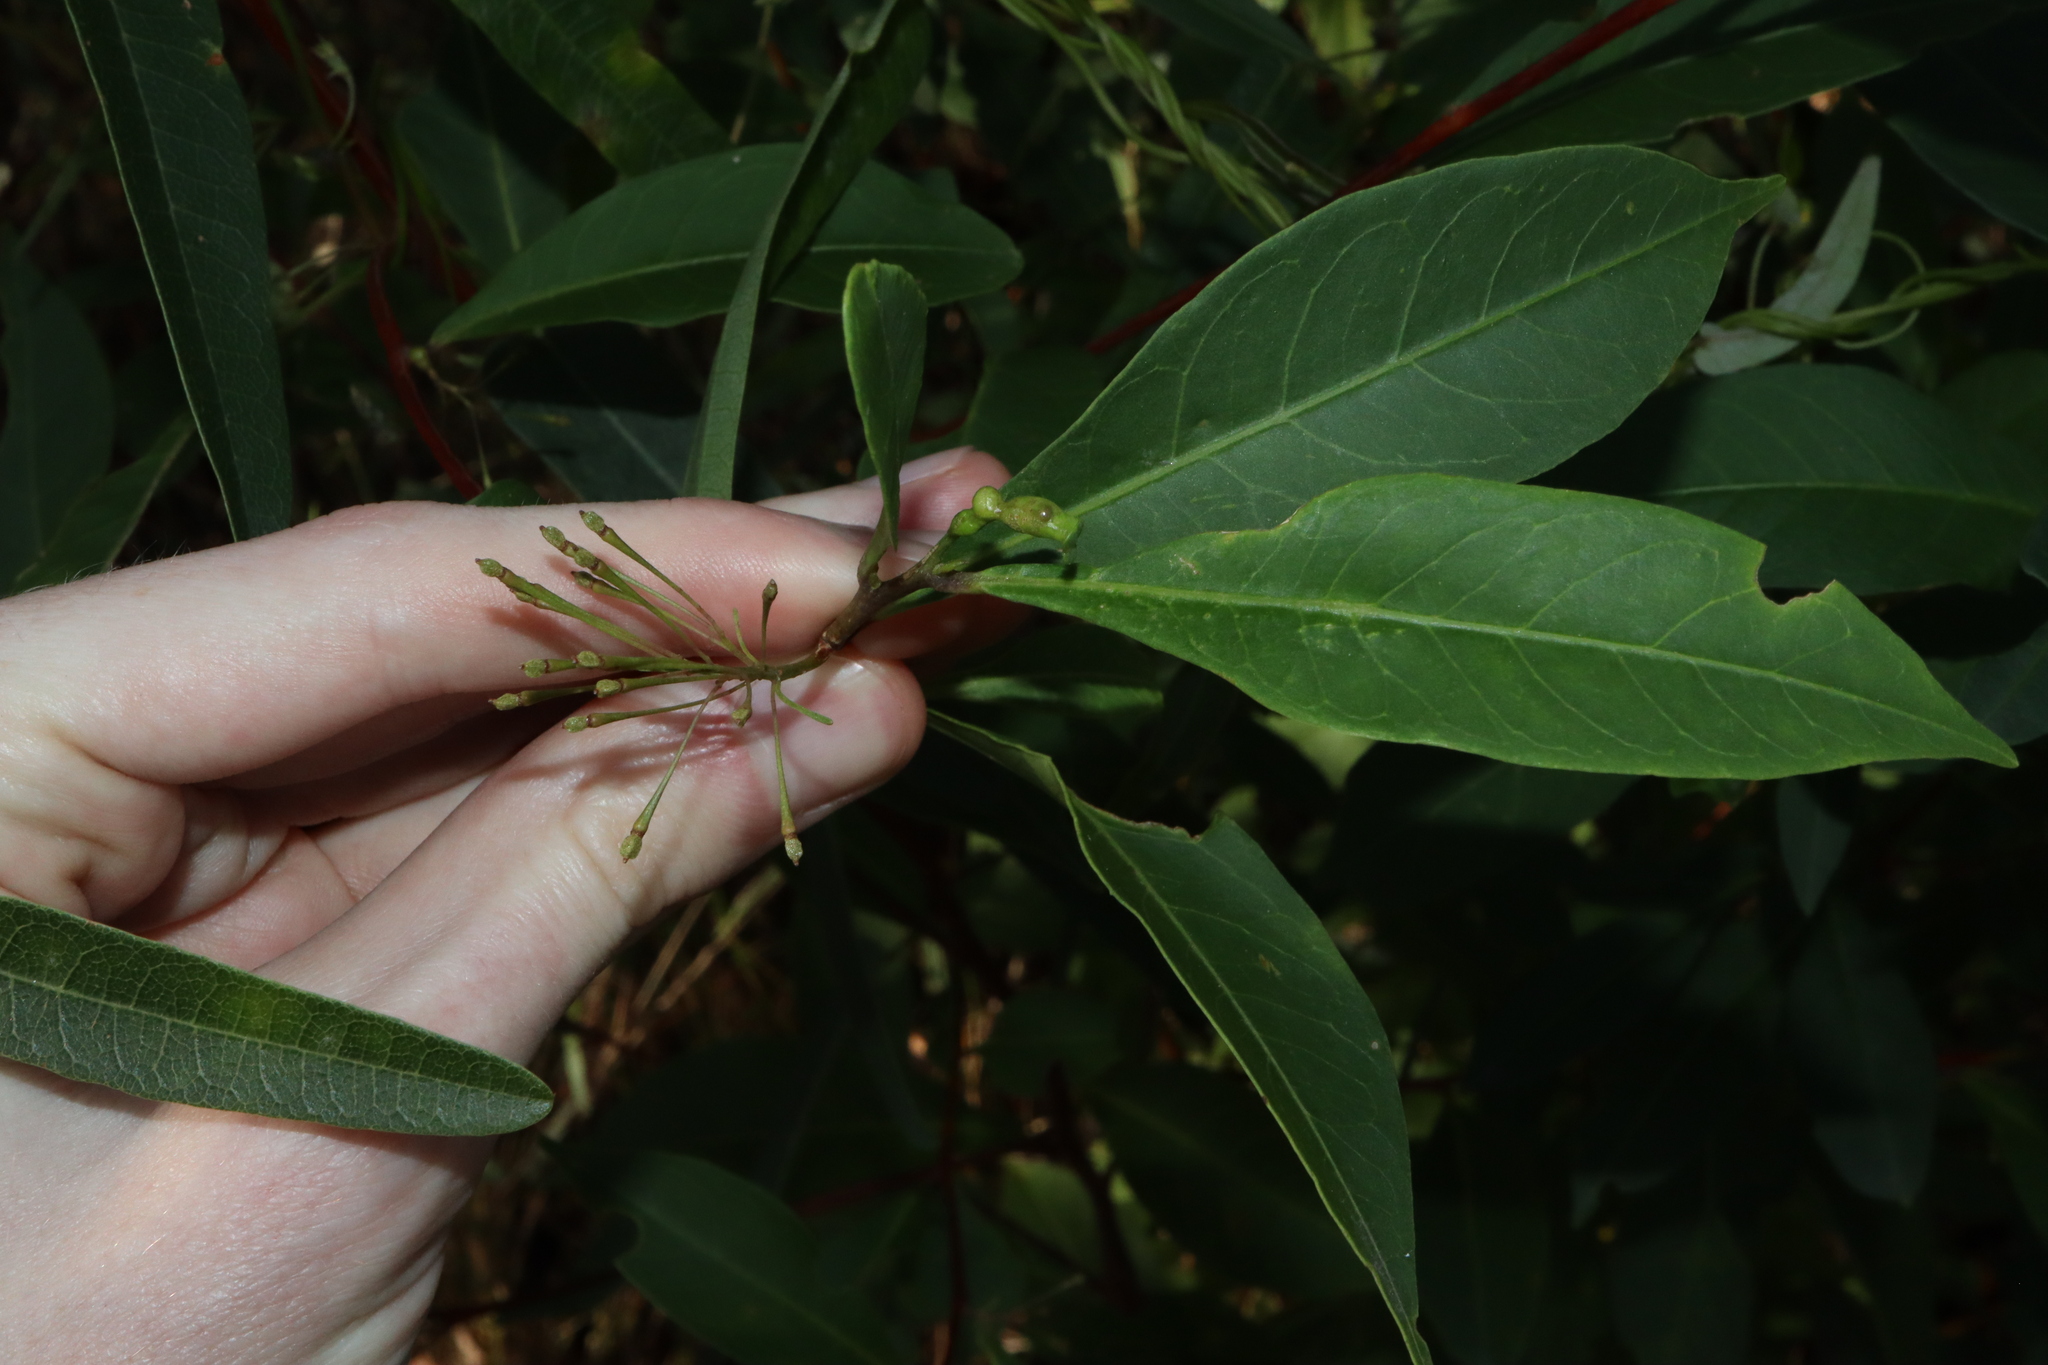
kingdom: Plantae
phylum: Tracheophyta
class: Magnoliopsida
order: Sapindales
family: Sapindaceae
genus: Dodonaea
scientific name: Dodonaea triquetra
